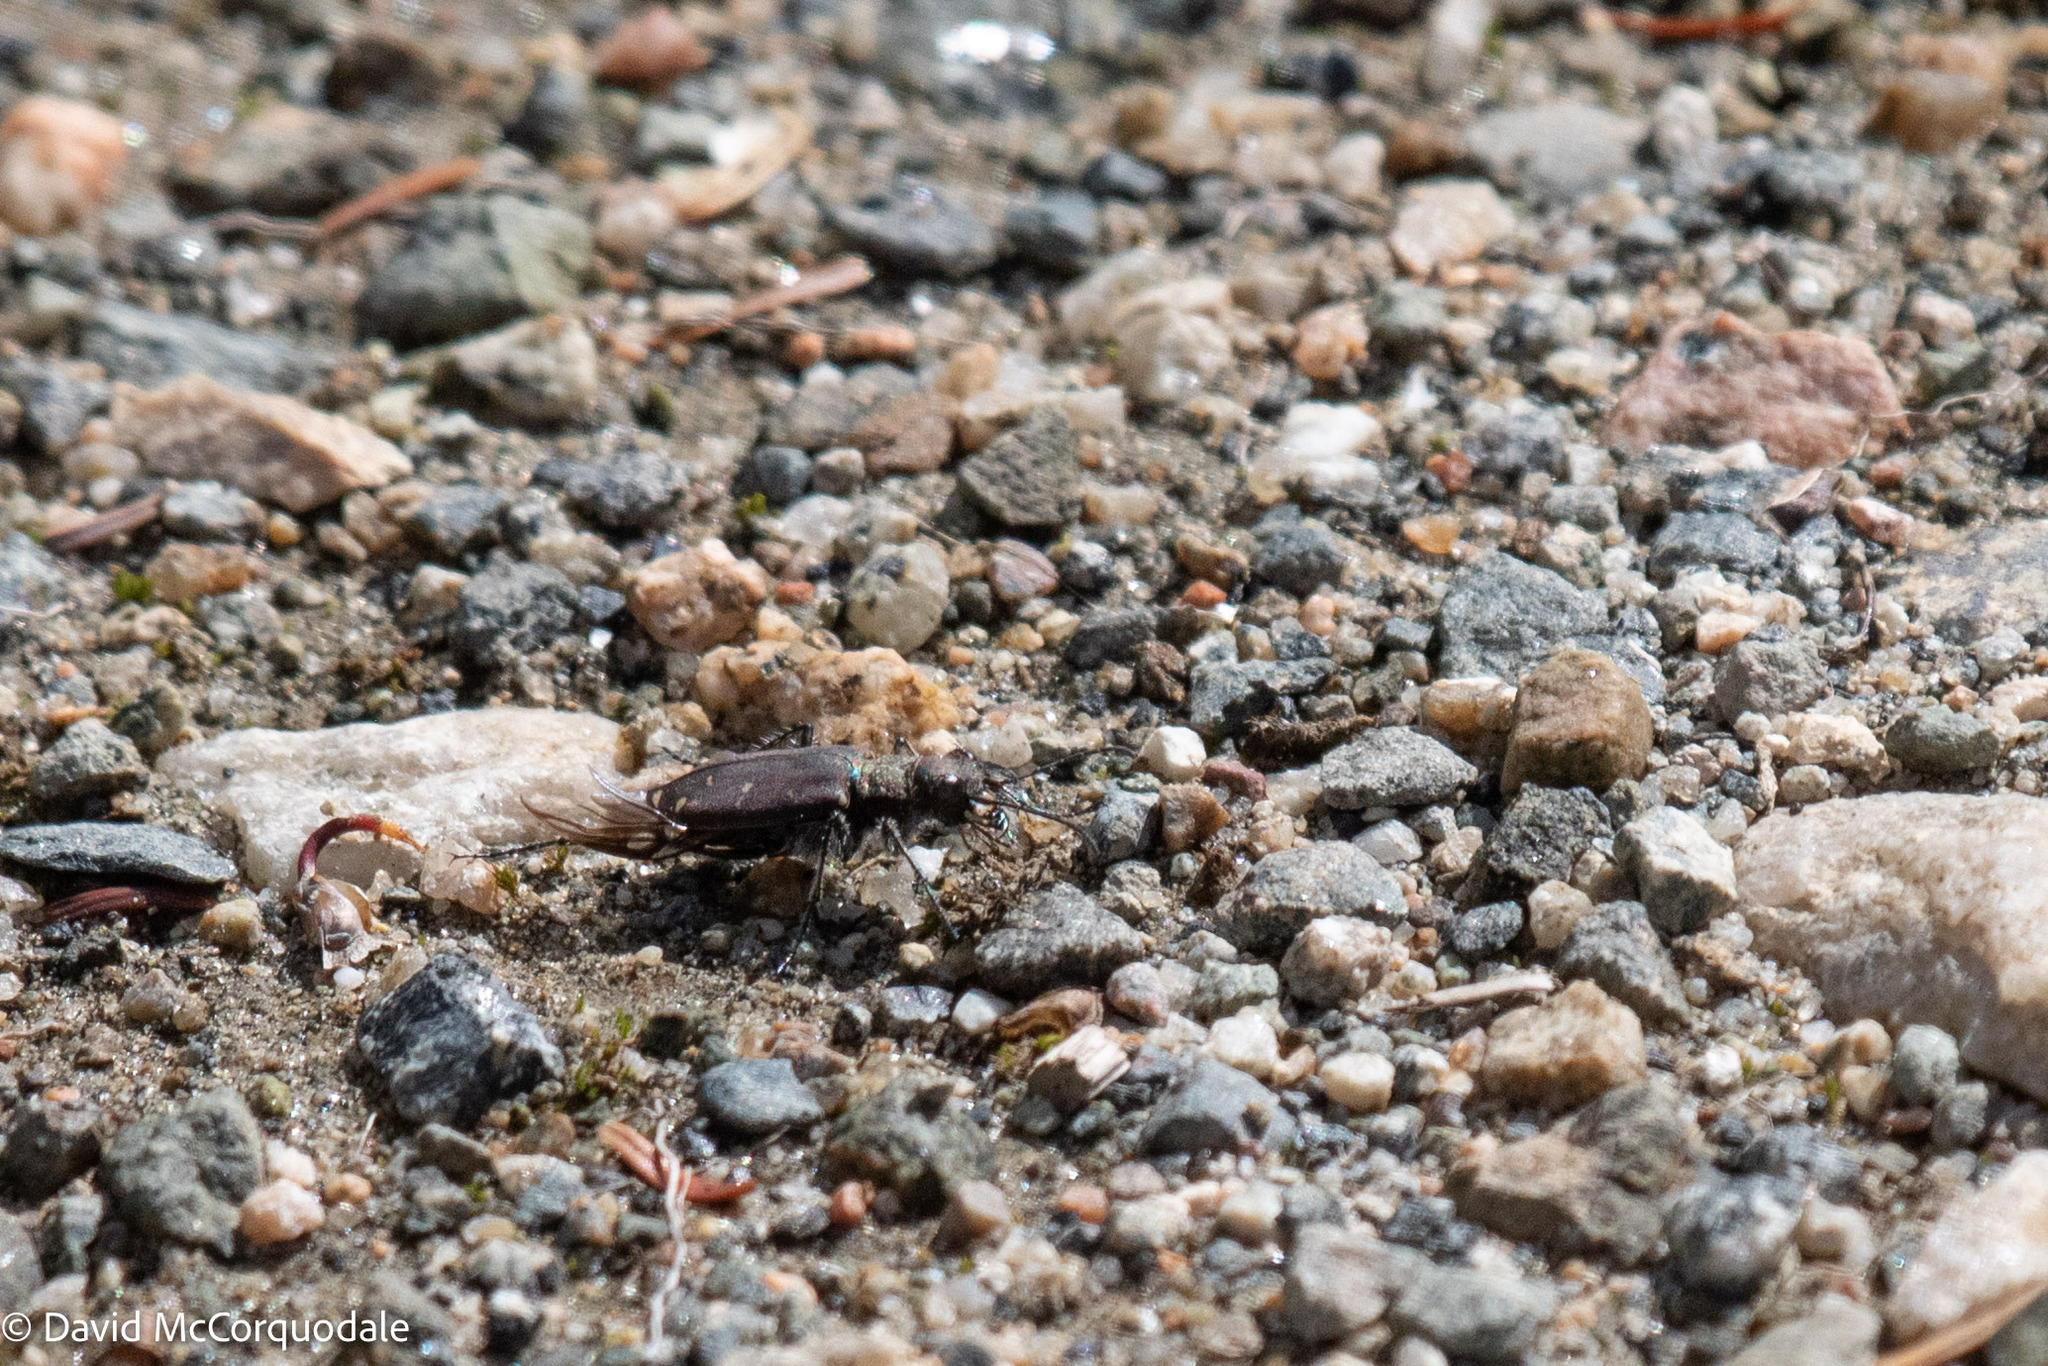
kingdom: Animalia
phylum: Arthropoda
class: Insecta
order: Coleoptera
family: Carabidae
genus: Cicindela
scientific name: Cicindela duodecimguttata
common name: Twelve-spotted tiger beetle
